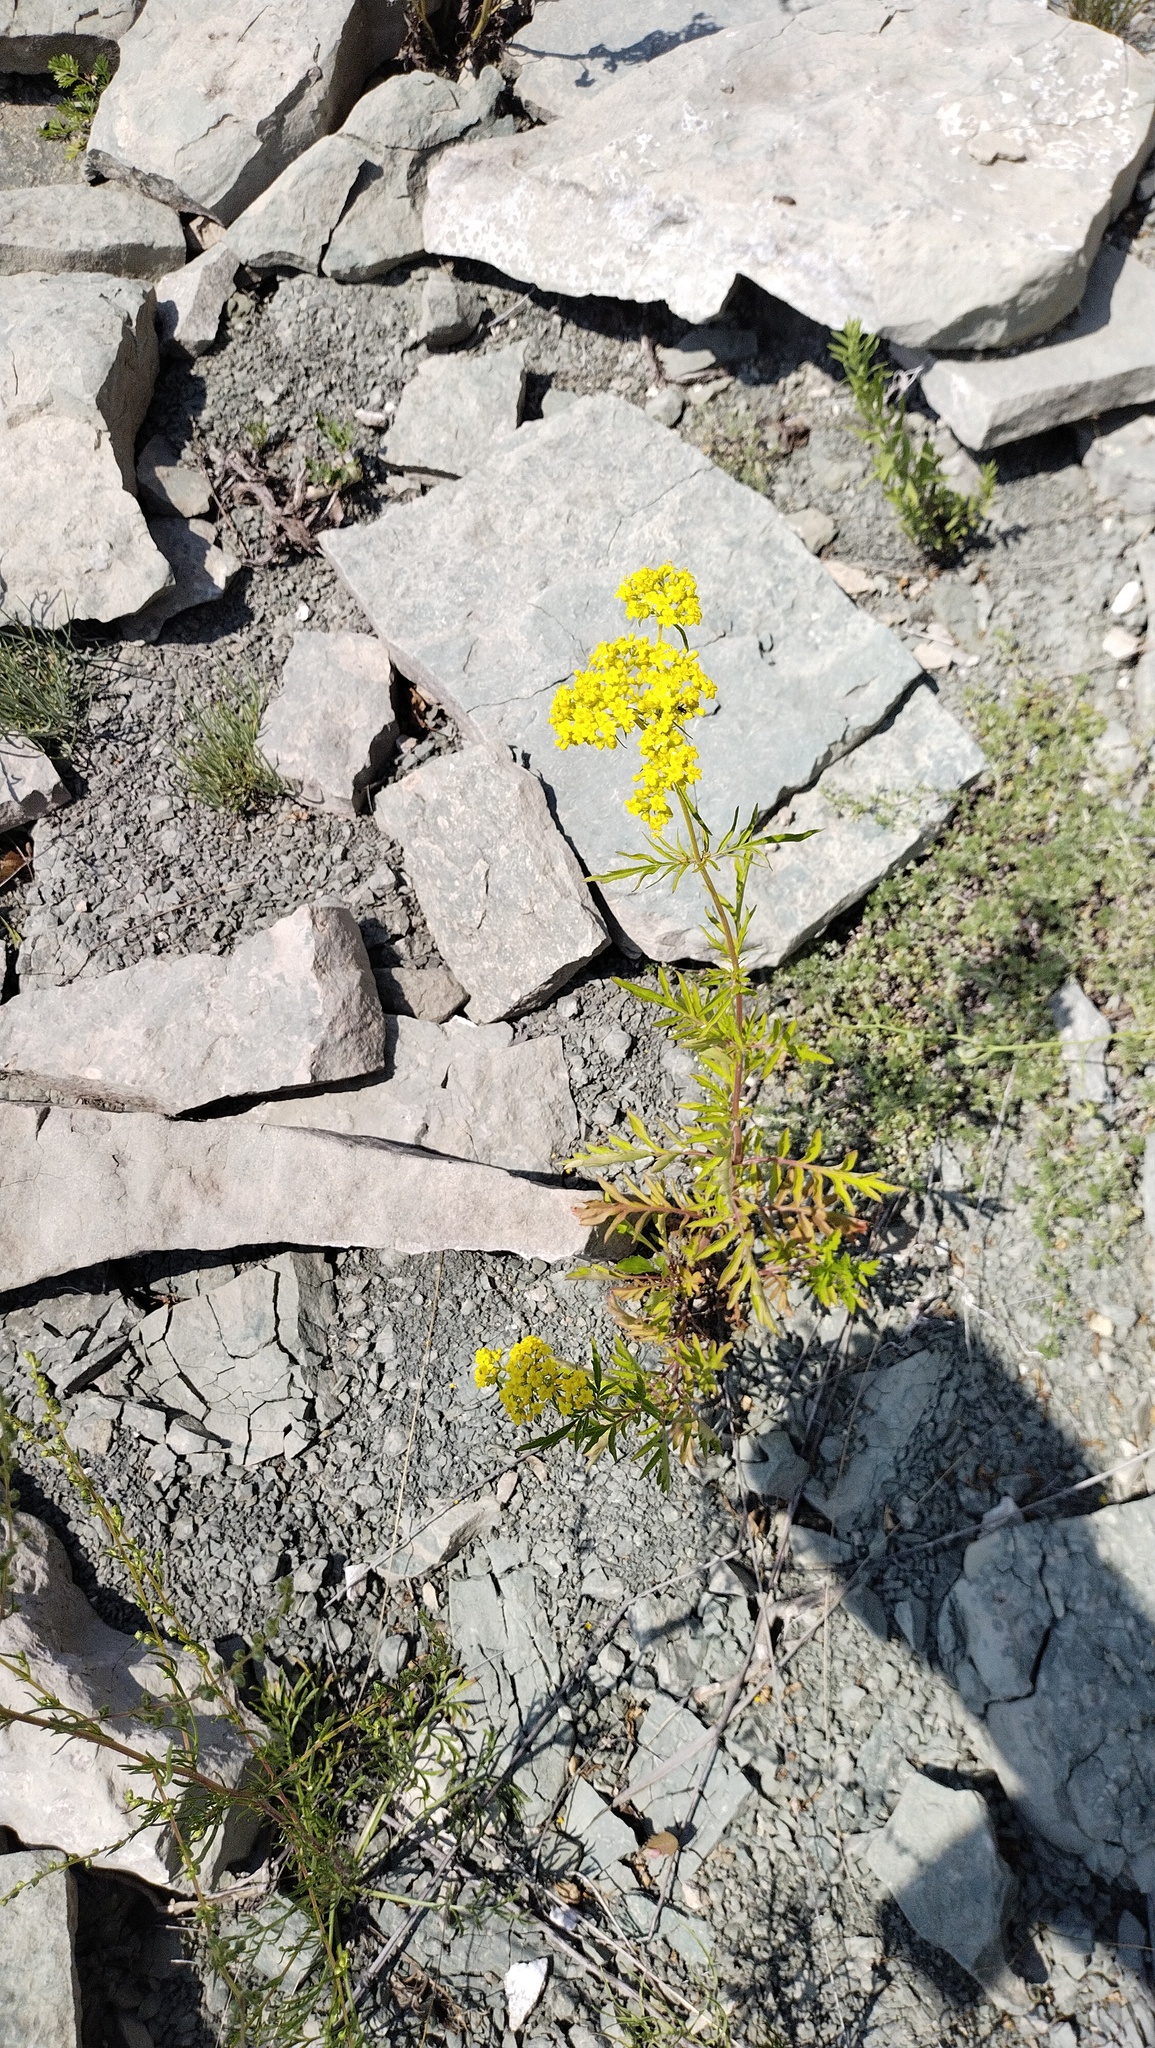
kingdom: Plantae
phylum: Tracheophyta
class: Magnoliopsida
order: Dipsacales
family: Caprifoliaceae
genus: Patrinia
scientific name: Patrinia rupestris
